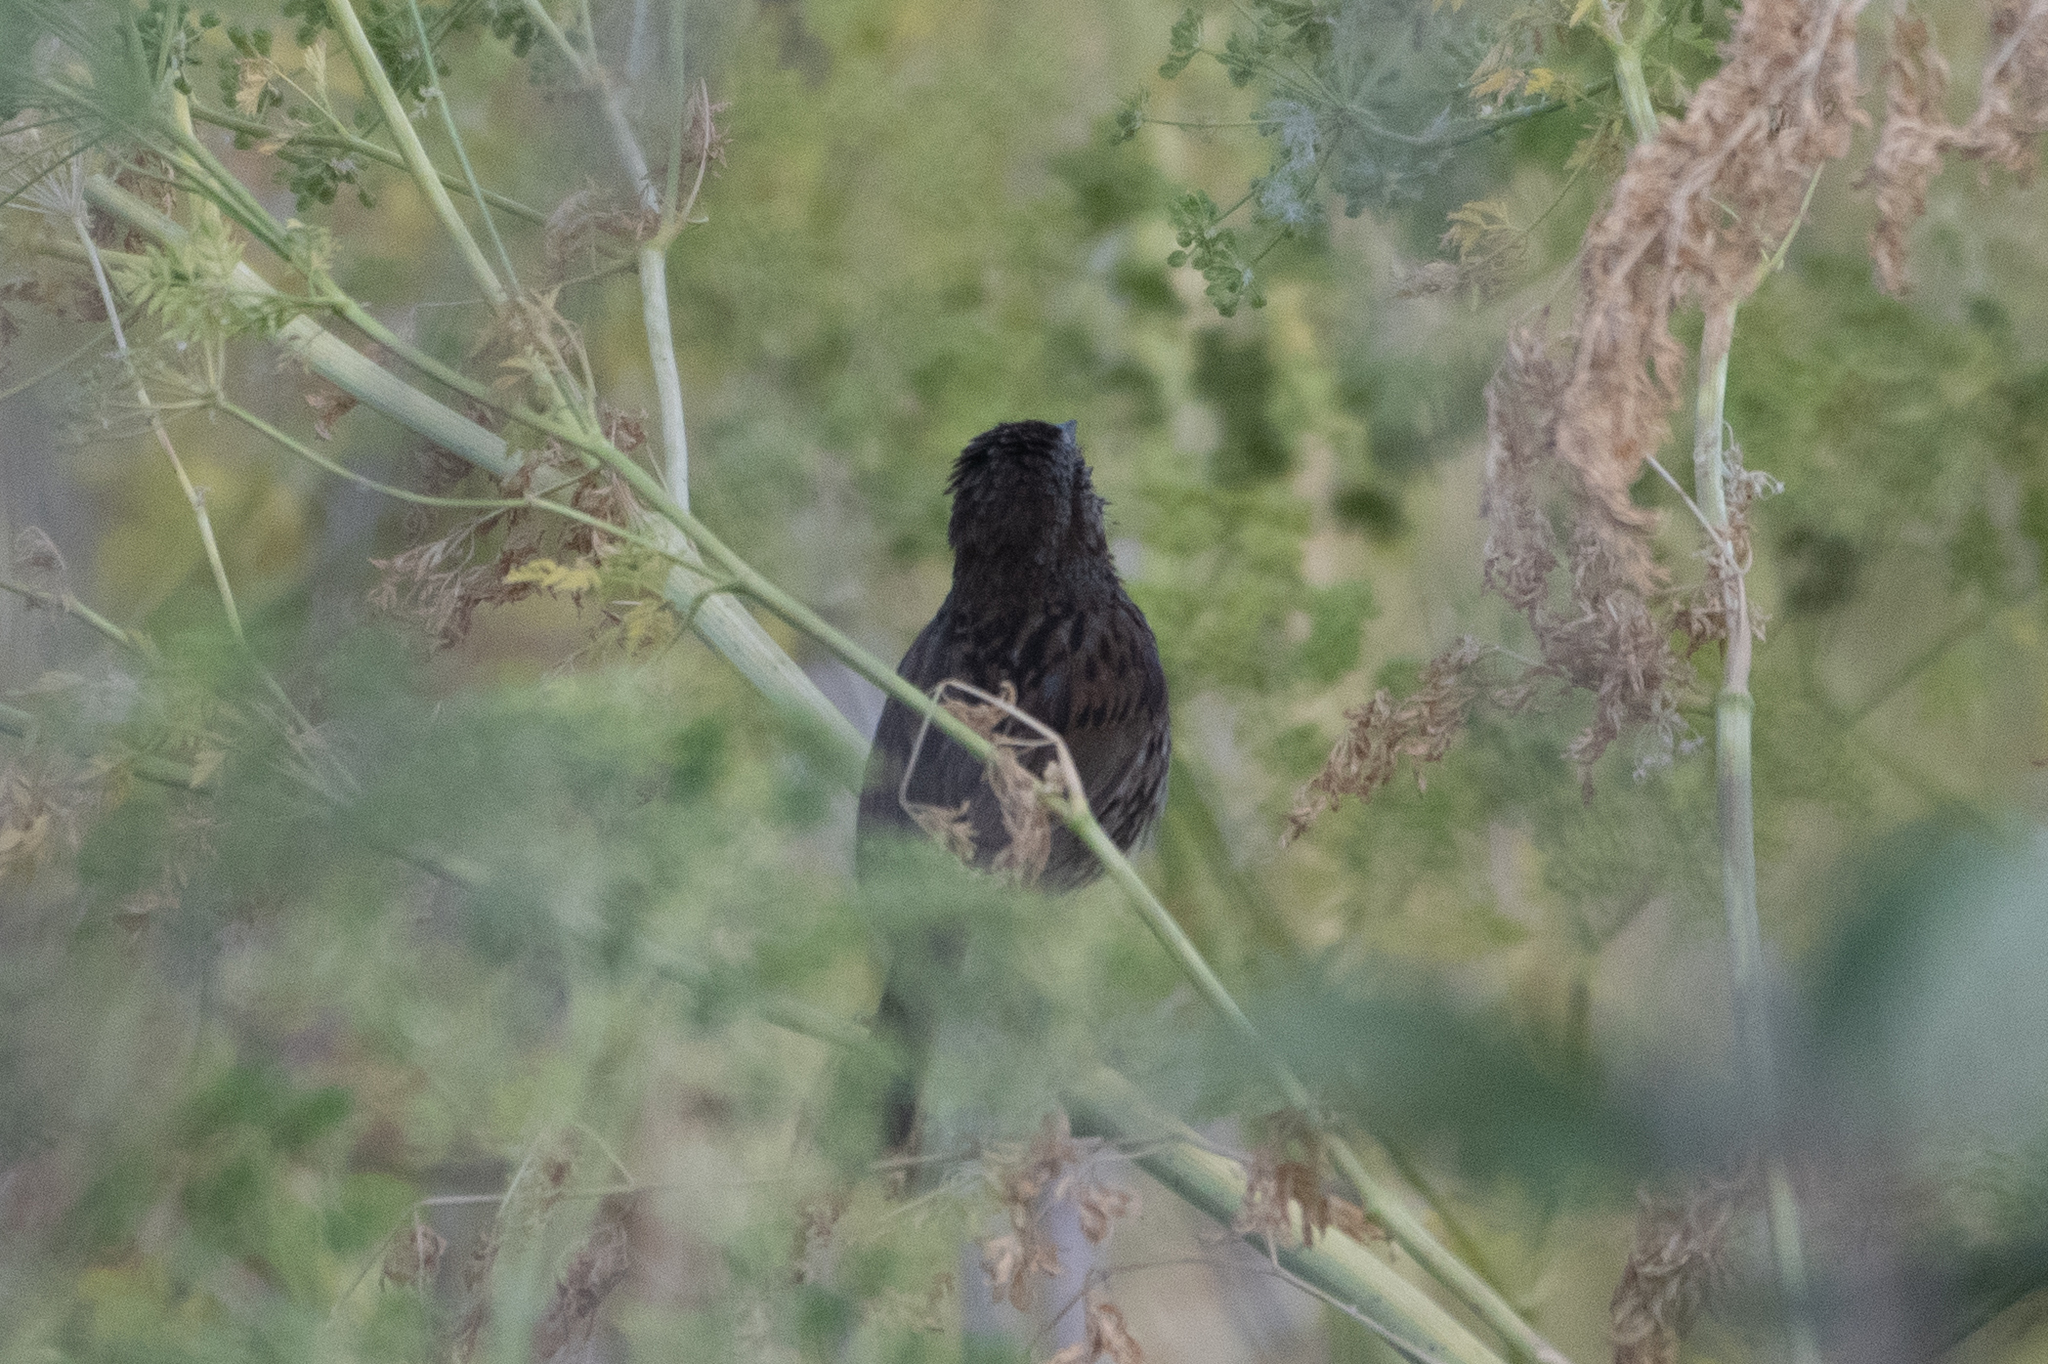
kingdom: Animalia
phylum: Chordata
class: Aves
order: Passeriformes
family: Passerellidae
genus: Melospiza
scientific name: Melospiza melodia
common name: Song sparrow
